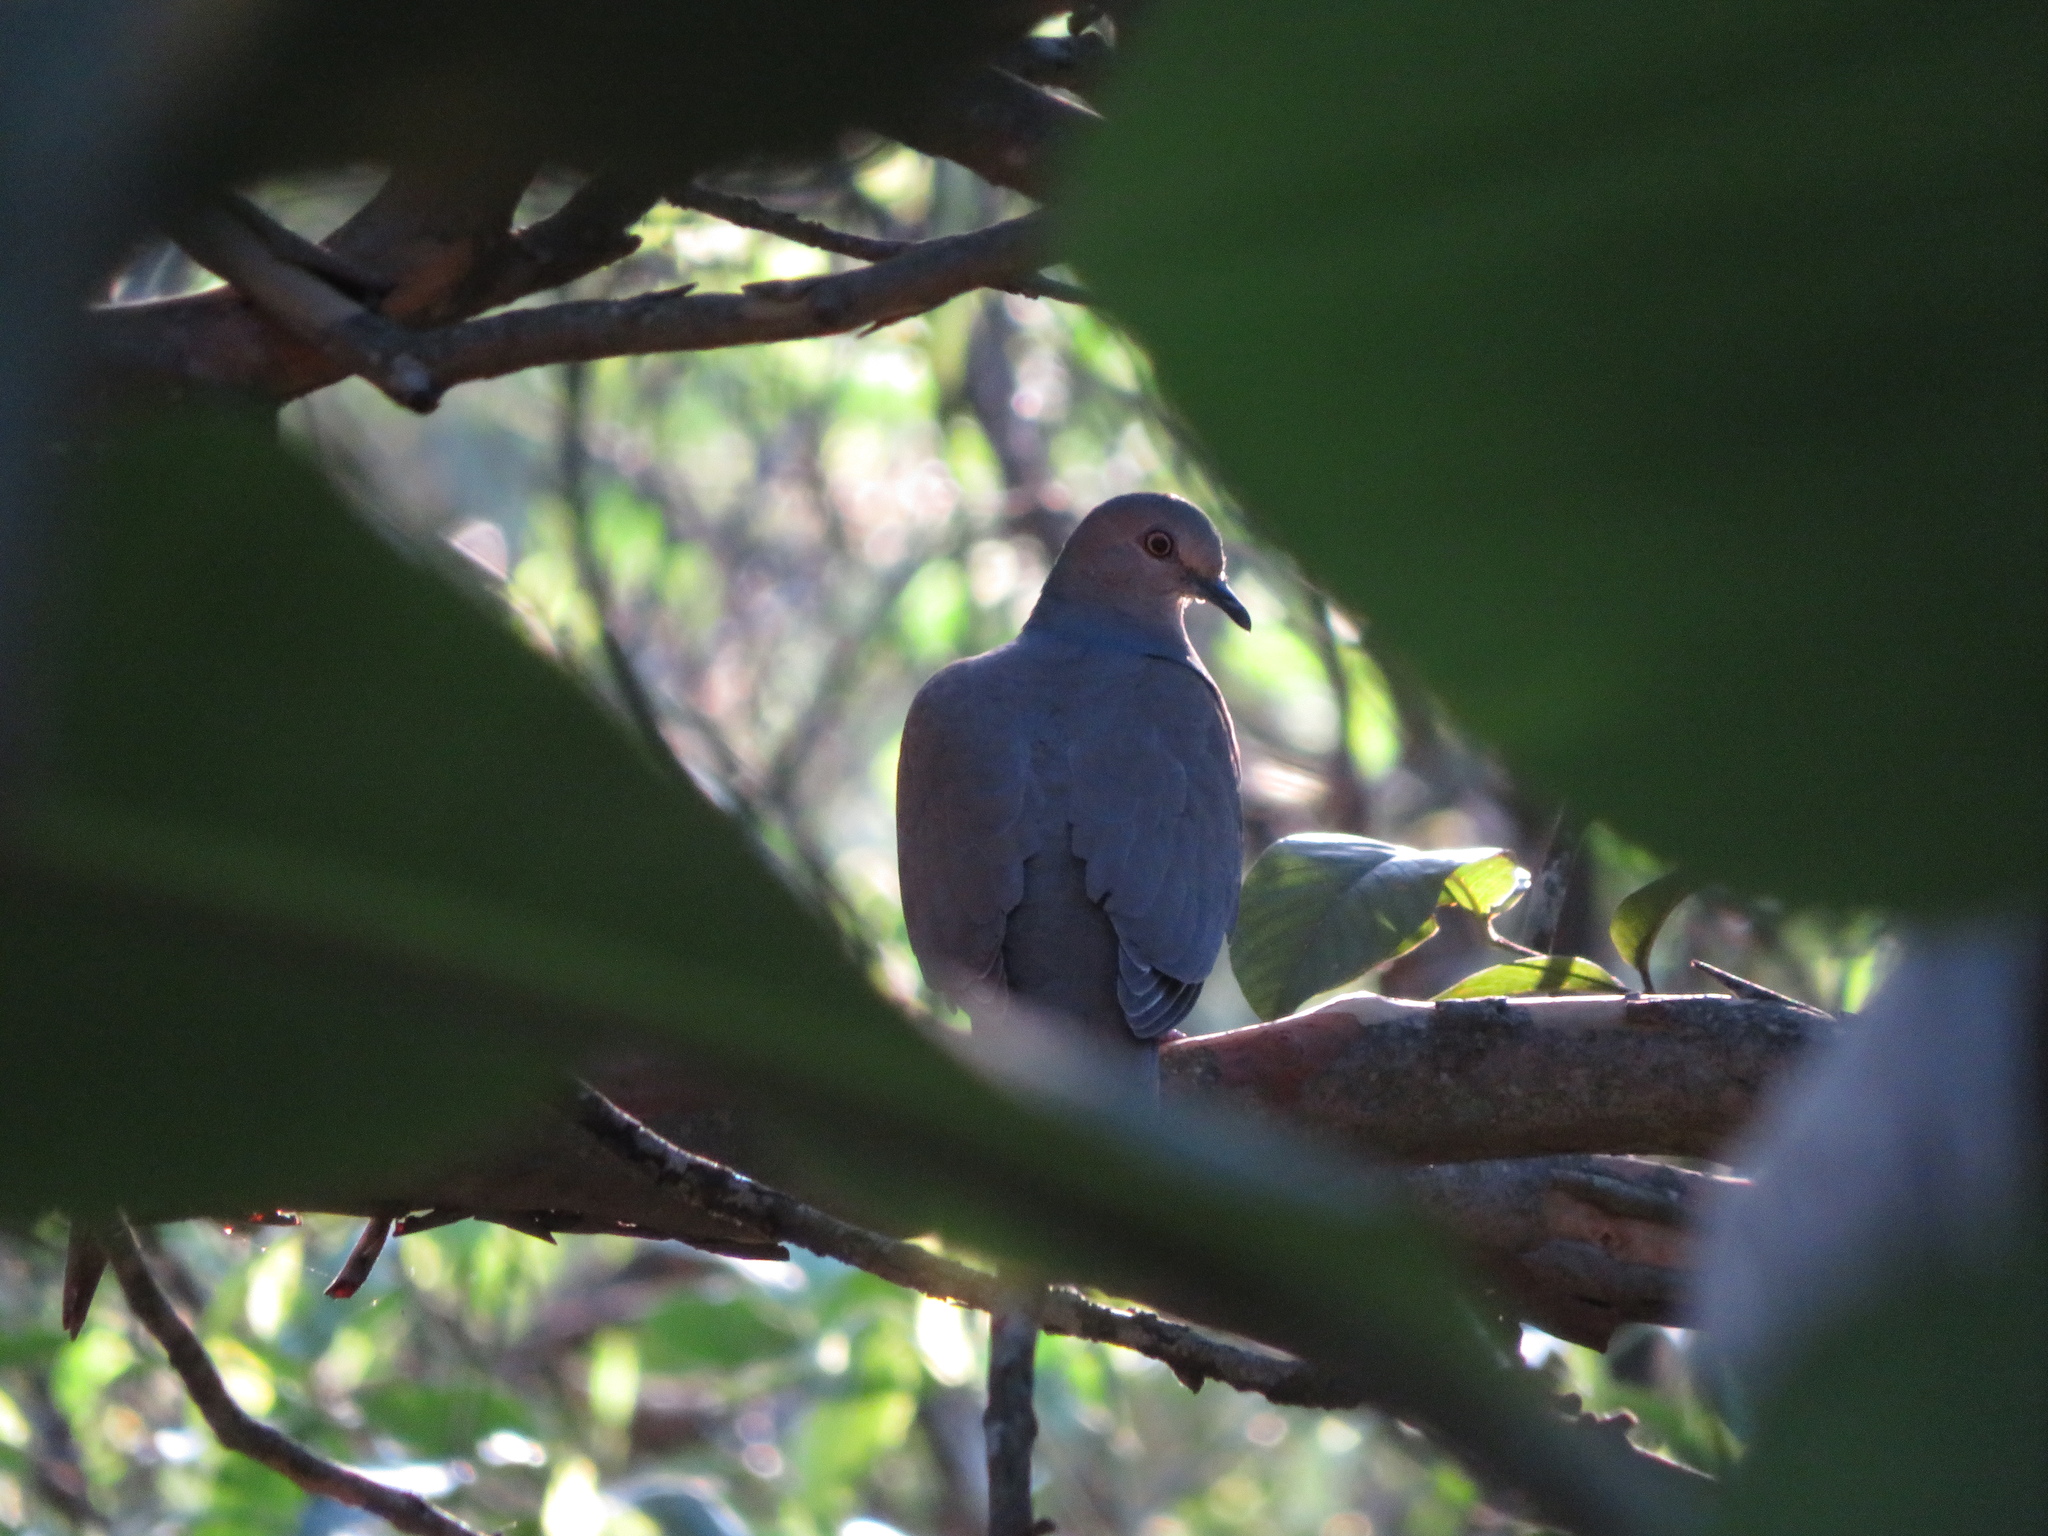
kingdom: Animalia
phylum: Chordata
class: Aves
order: Columbiformes
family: Columbidae
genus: Leptotila
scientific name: Leptotila verreauxi
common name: White-tipped dove
